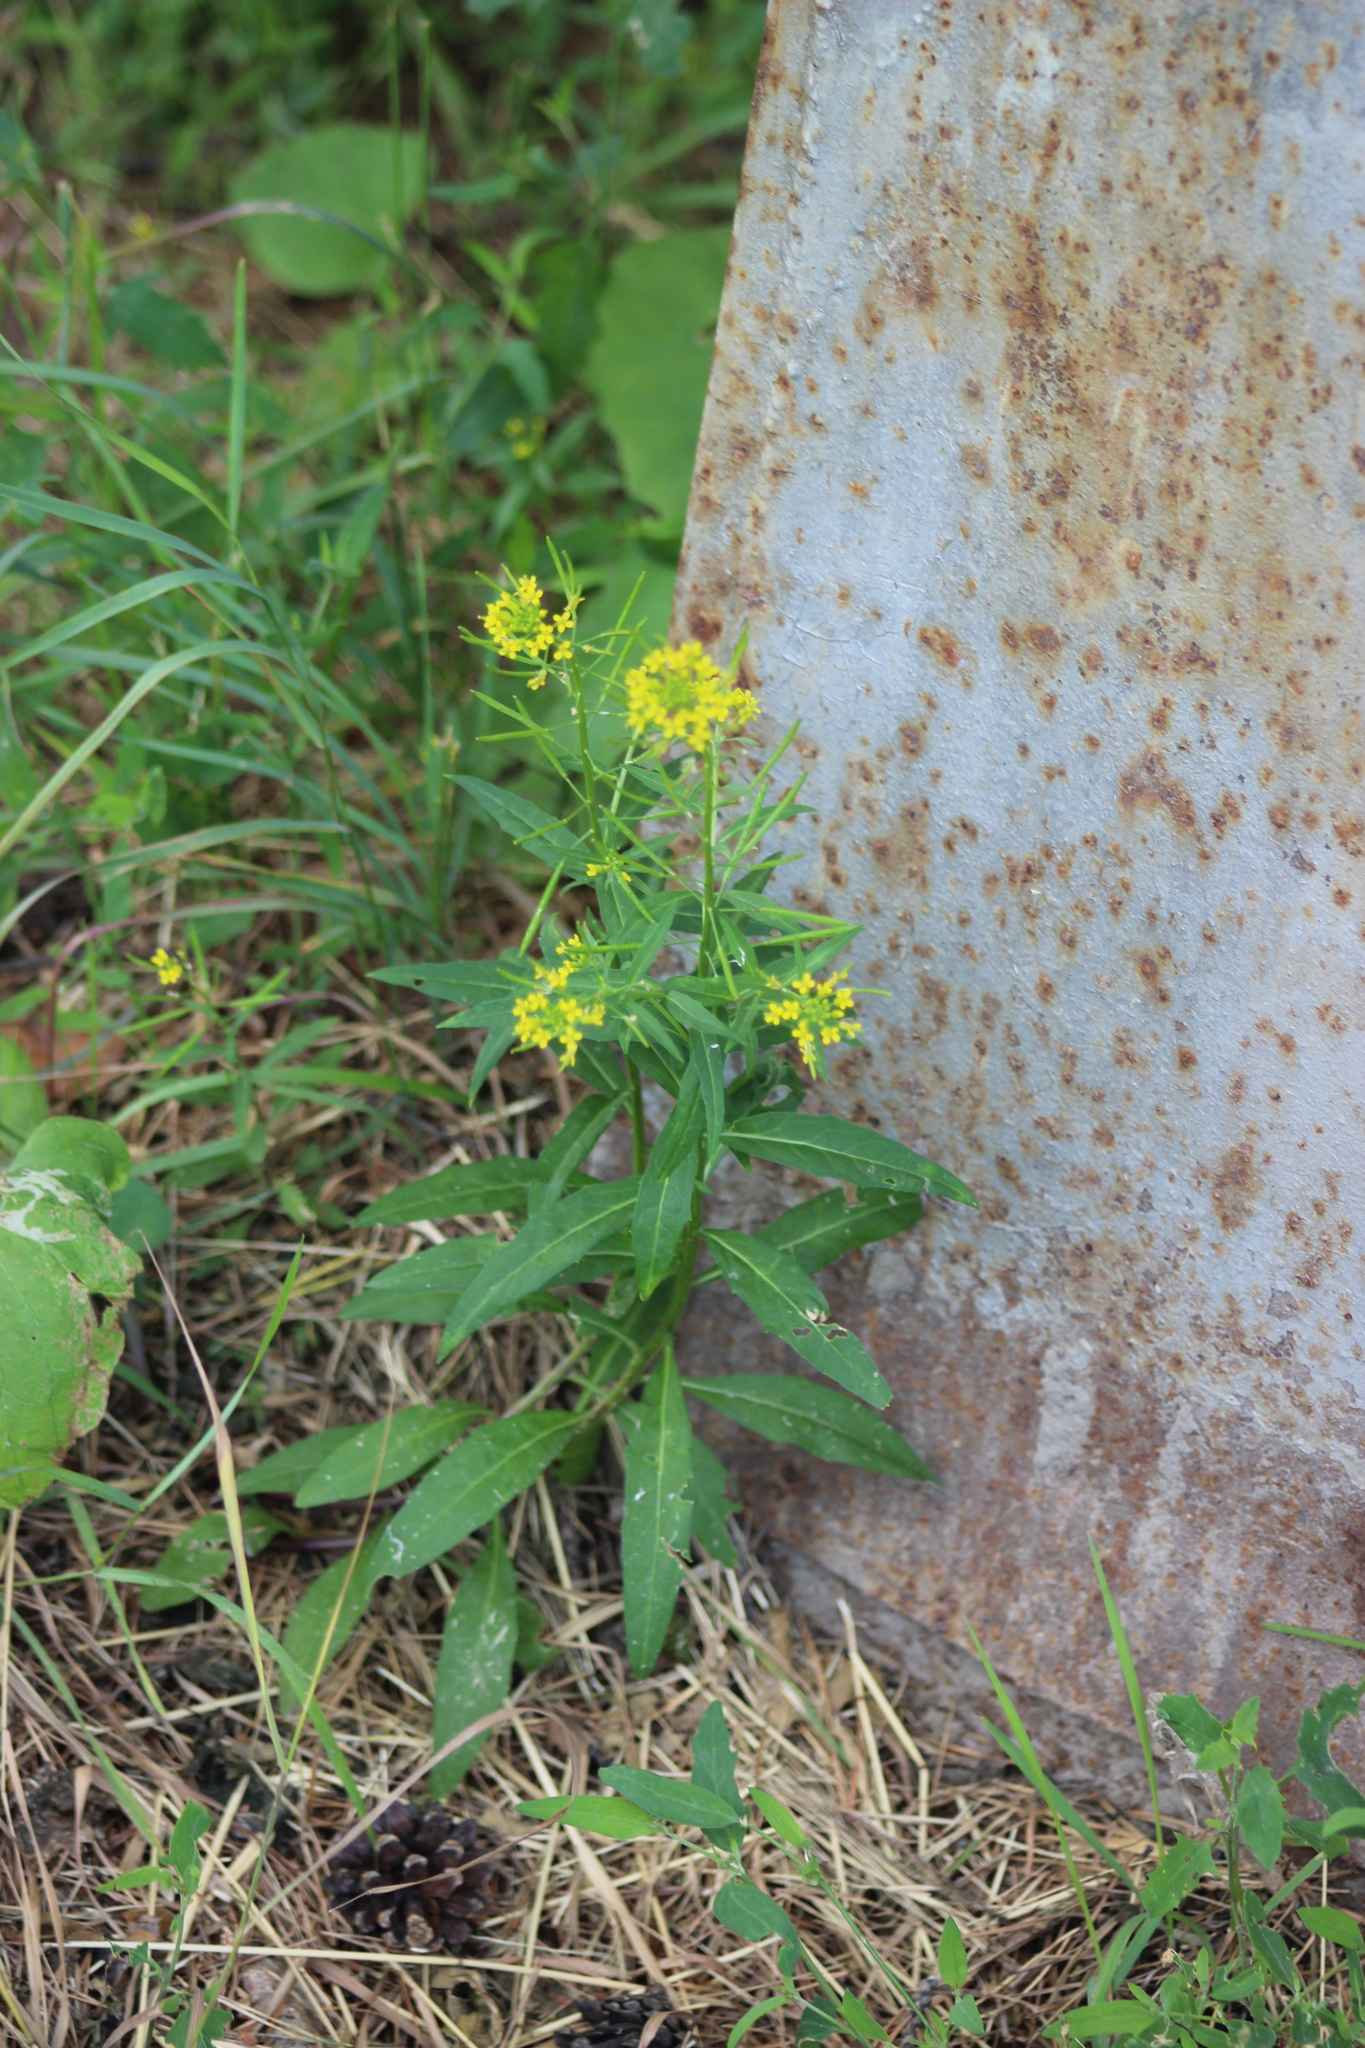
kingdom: Plantae
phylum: Tracheophyta
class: Magnoliopsida
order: Brassicales
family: Brassicaceae
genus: Erysimum
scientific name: Erysimum cheiranthoides
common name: Treacle mustard
